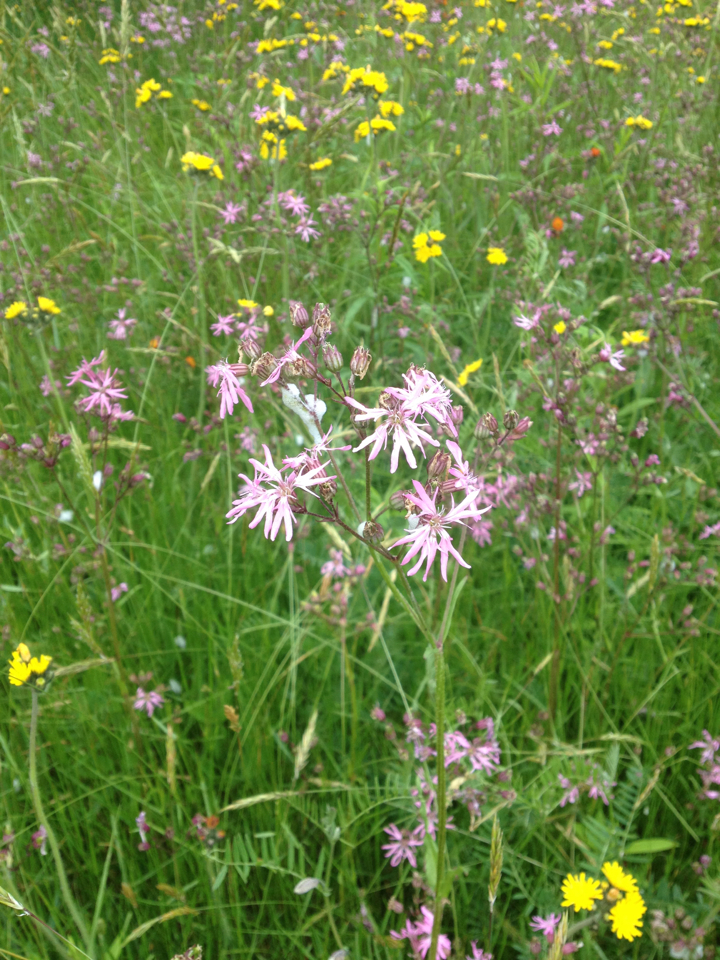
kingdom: Plantae
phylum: Tracheophyta
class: Magnoliopsida
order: Caryophyllales
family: Caryophyllaceae
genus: Silene
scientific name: Silene flos-cuculi
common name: Ragged-robin
